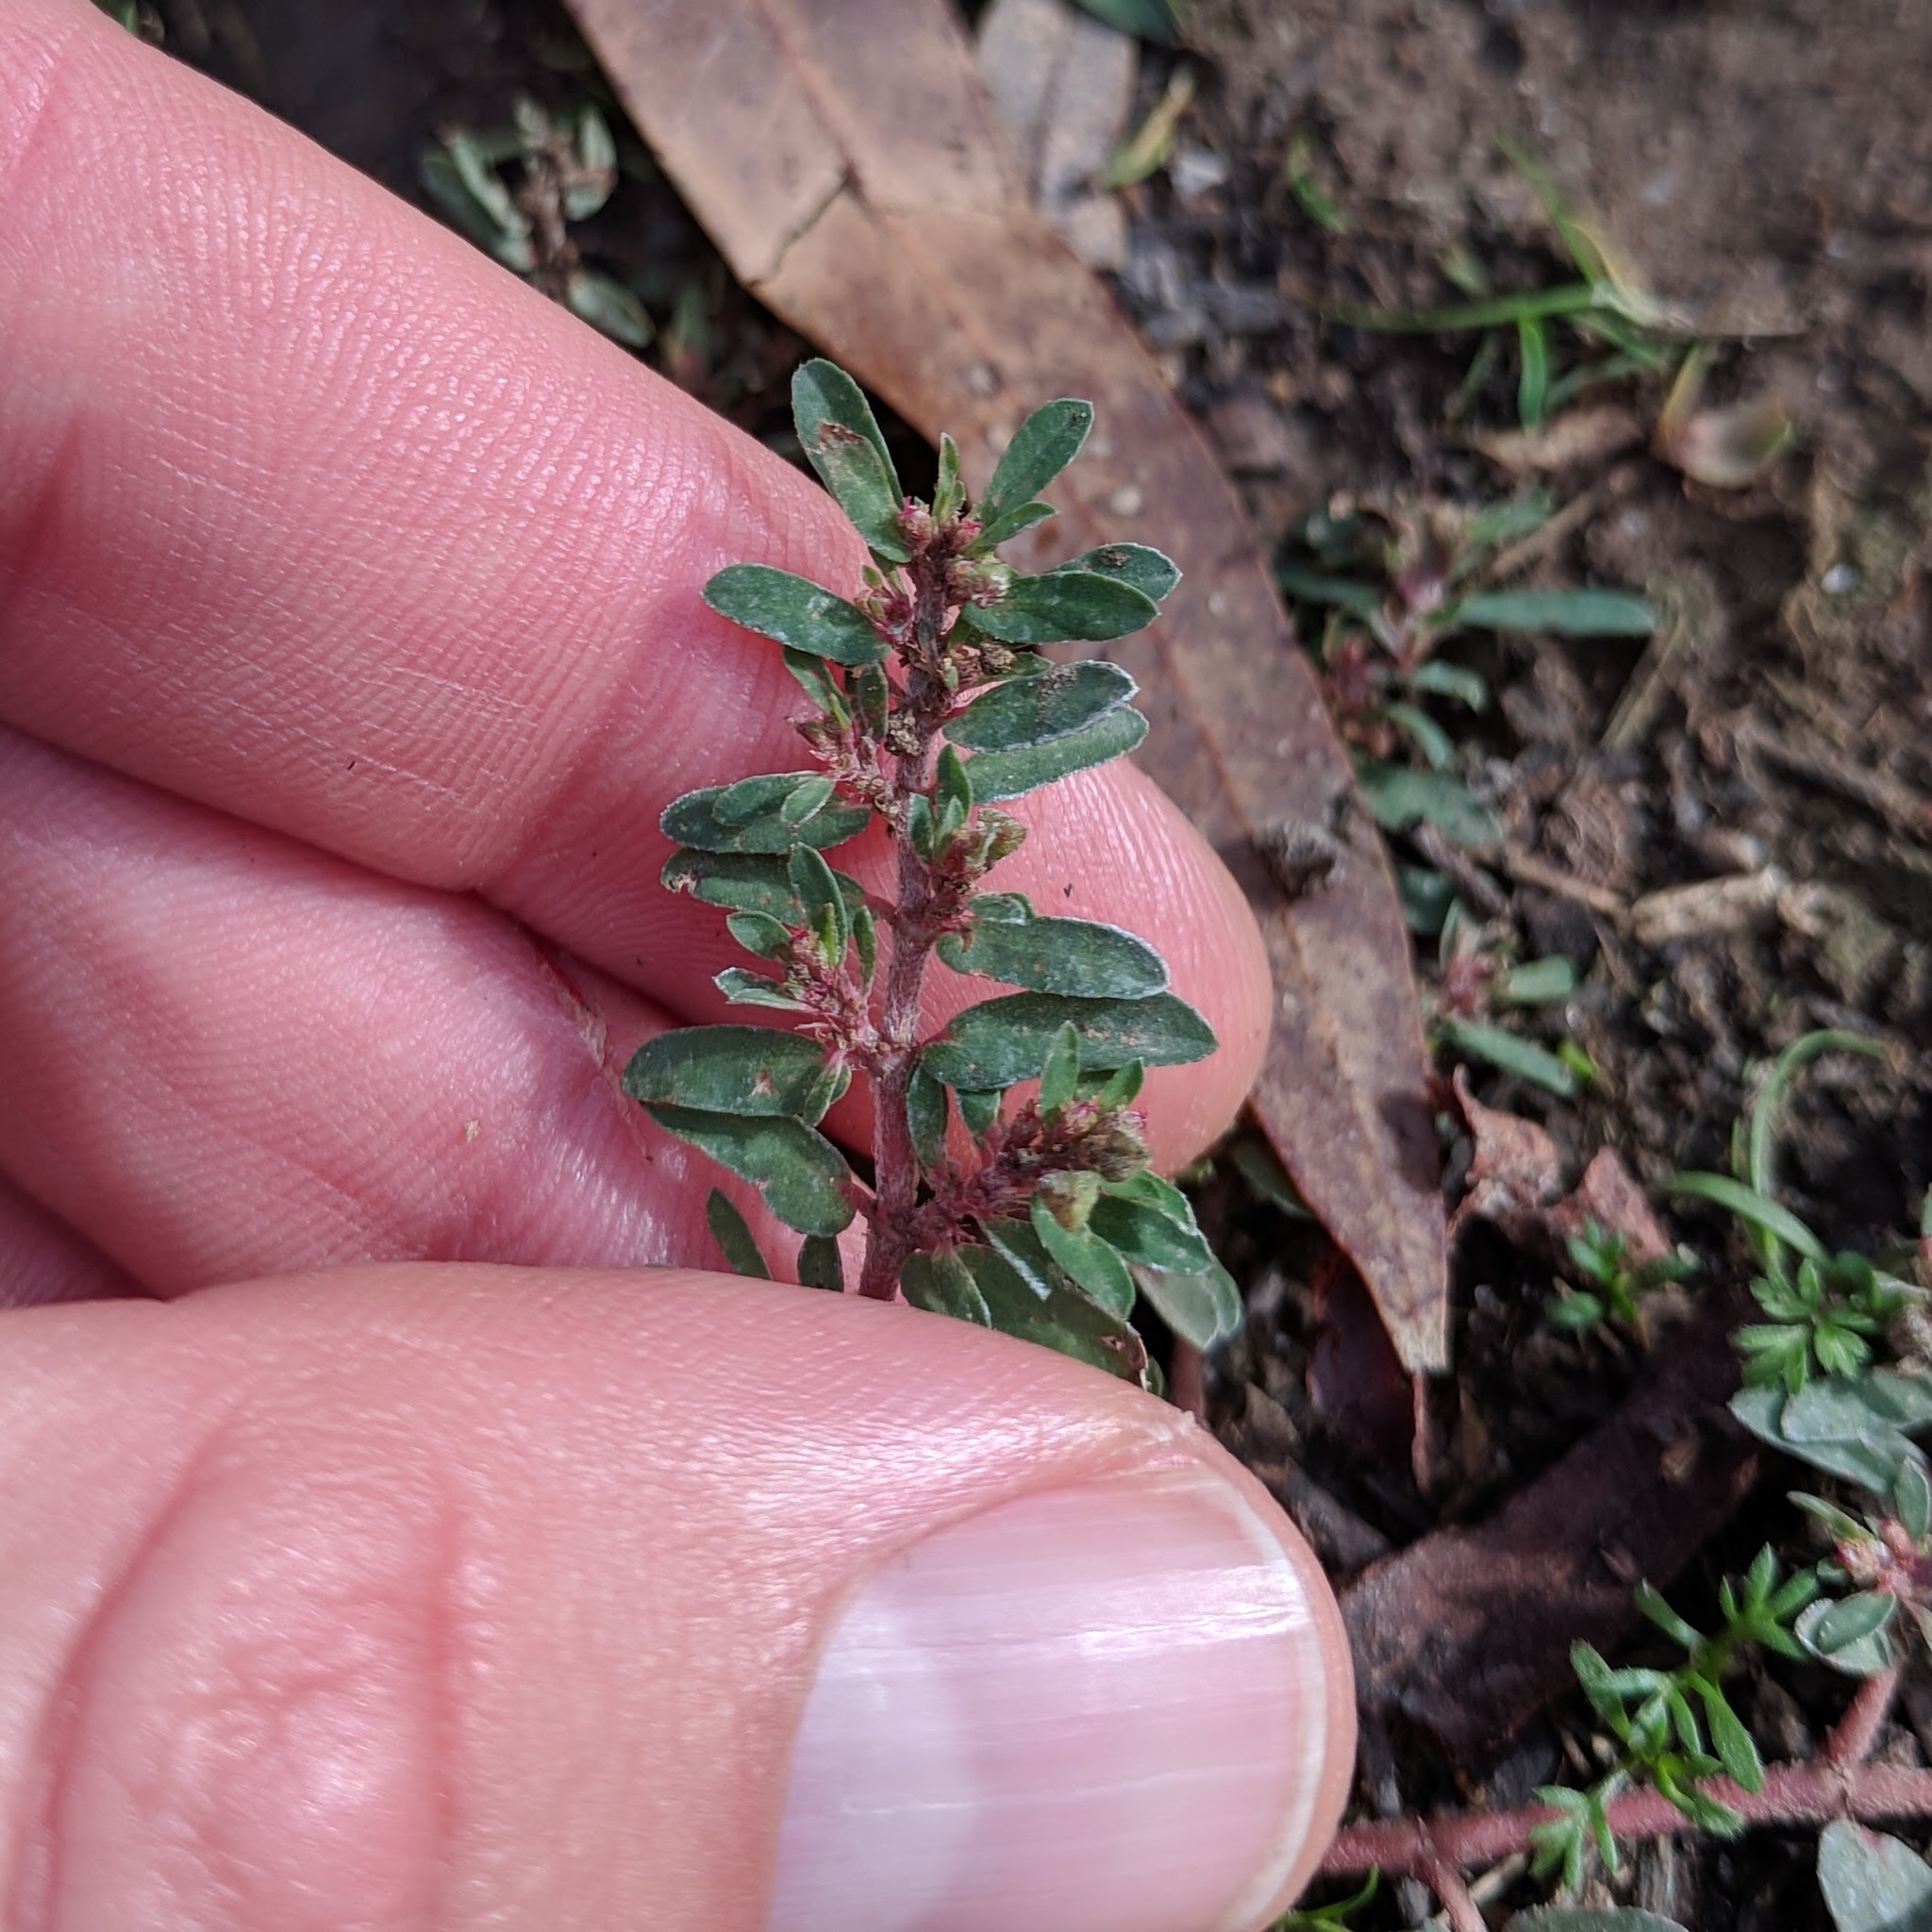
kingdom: Plantae
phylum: Tracheophyta
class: Magnoliopsida
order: Malpighiales
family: Euphorbiaceae
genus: Euphorbia
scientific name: Euphorbia maculata
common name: Spotted spurge
